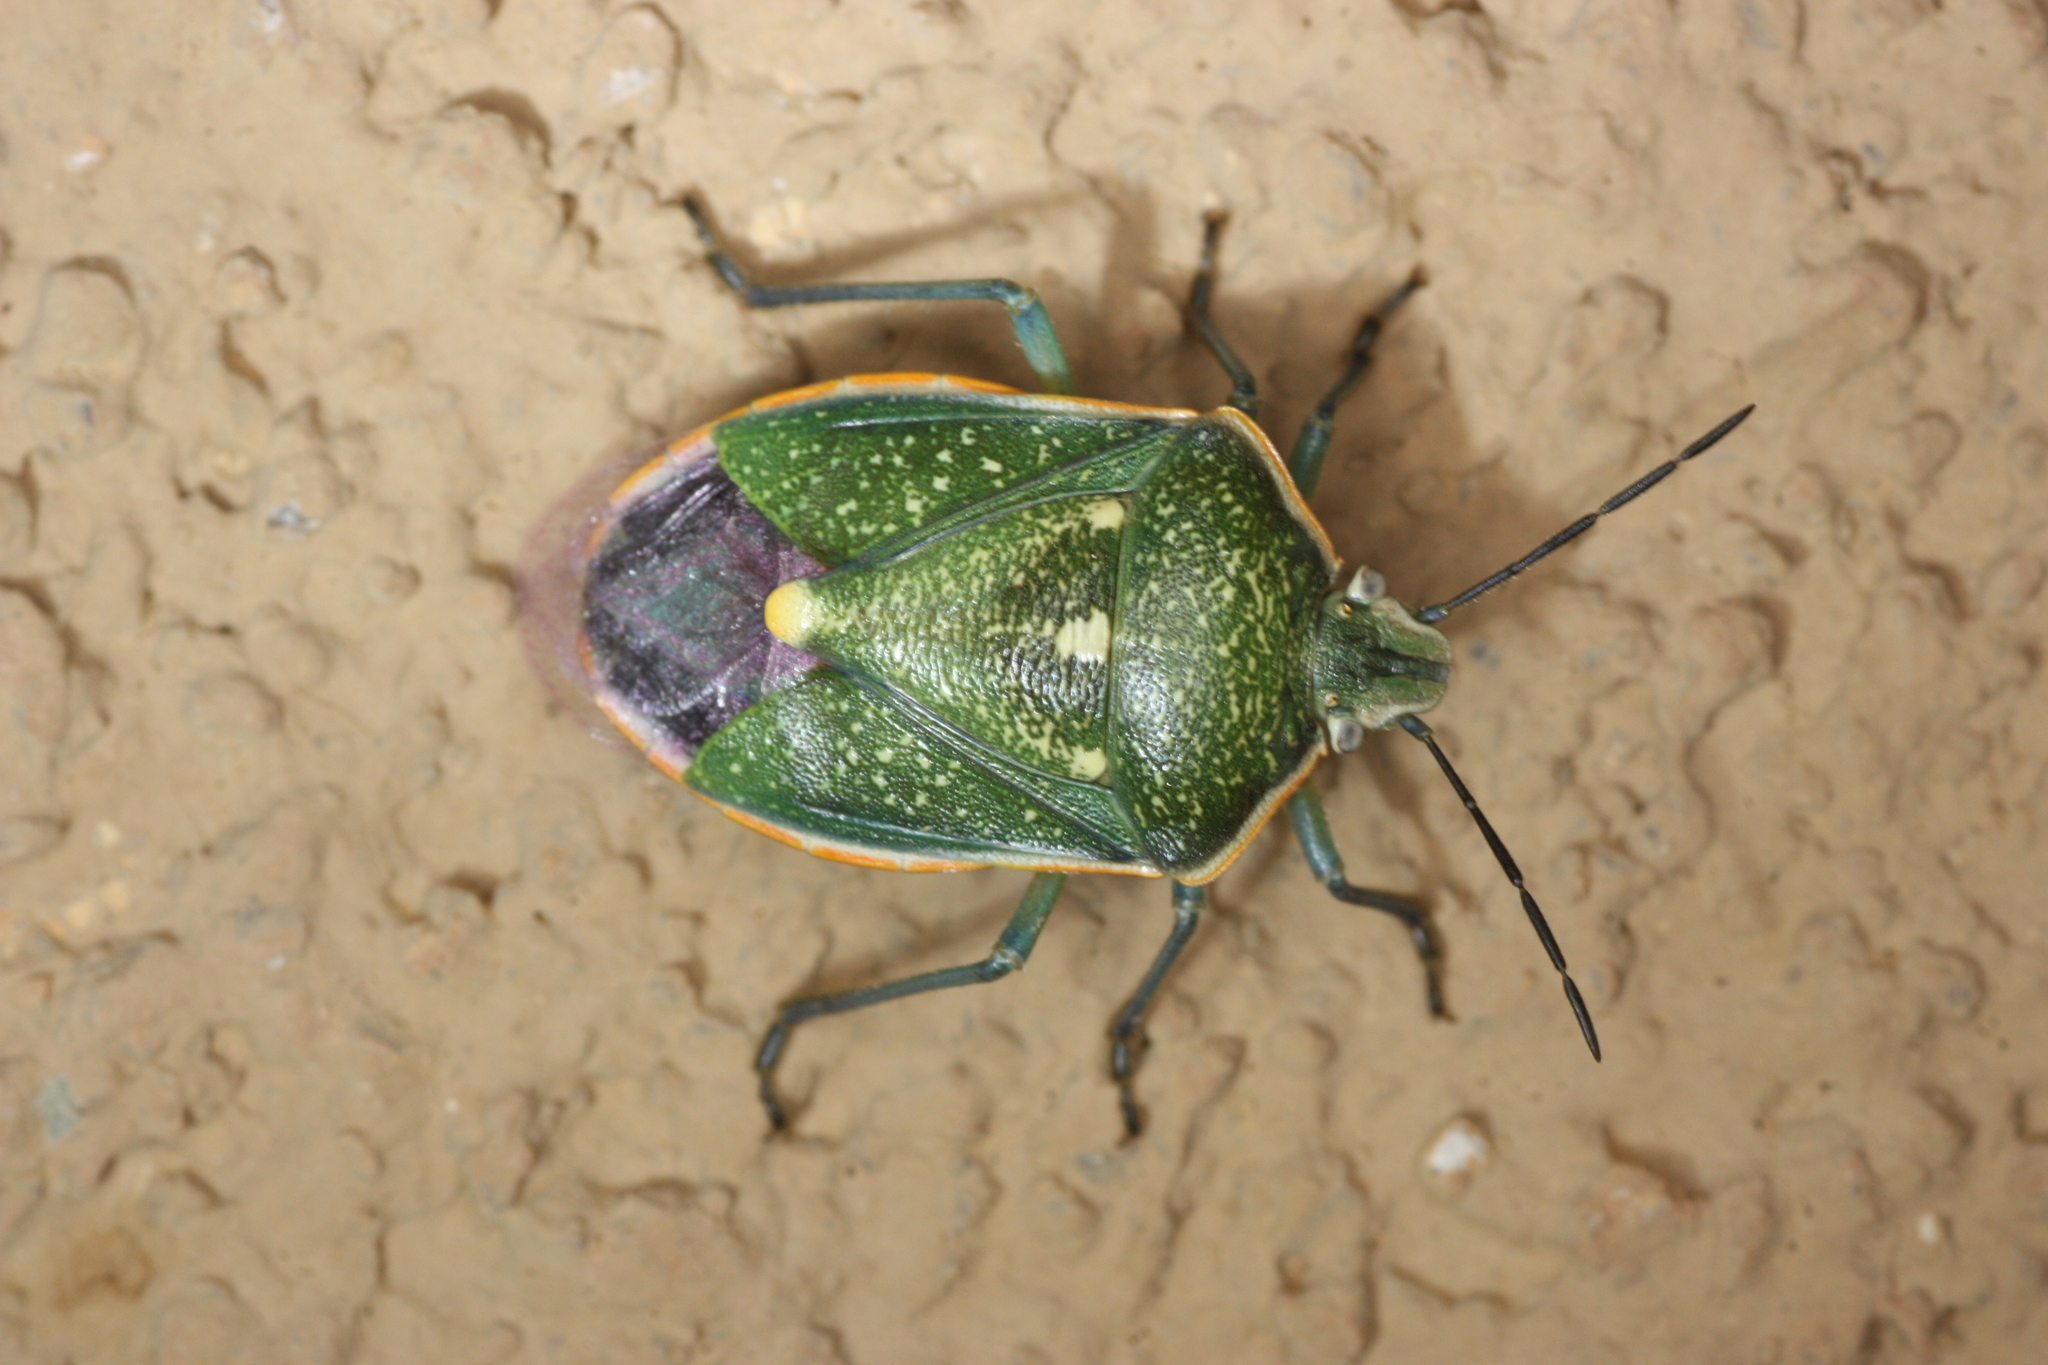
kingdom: Animalia
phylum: Arthropoda
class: Insecta
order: Hemiptera
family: Pentatomidae
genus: Chlorochroa
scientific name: Chlorochroa sayi
